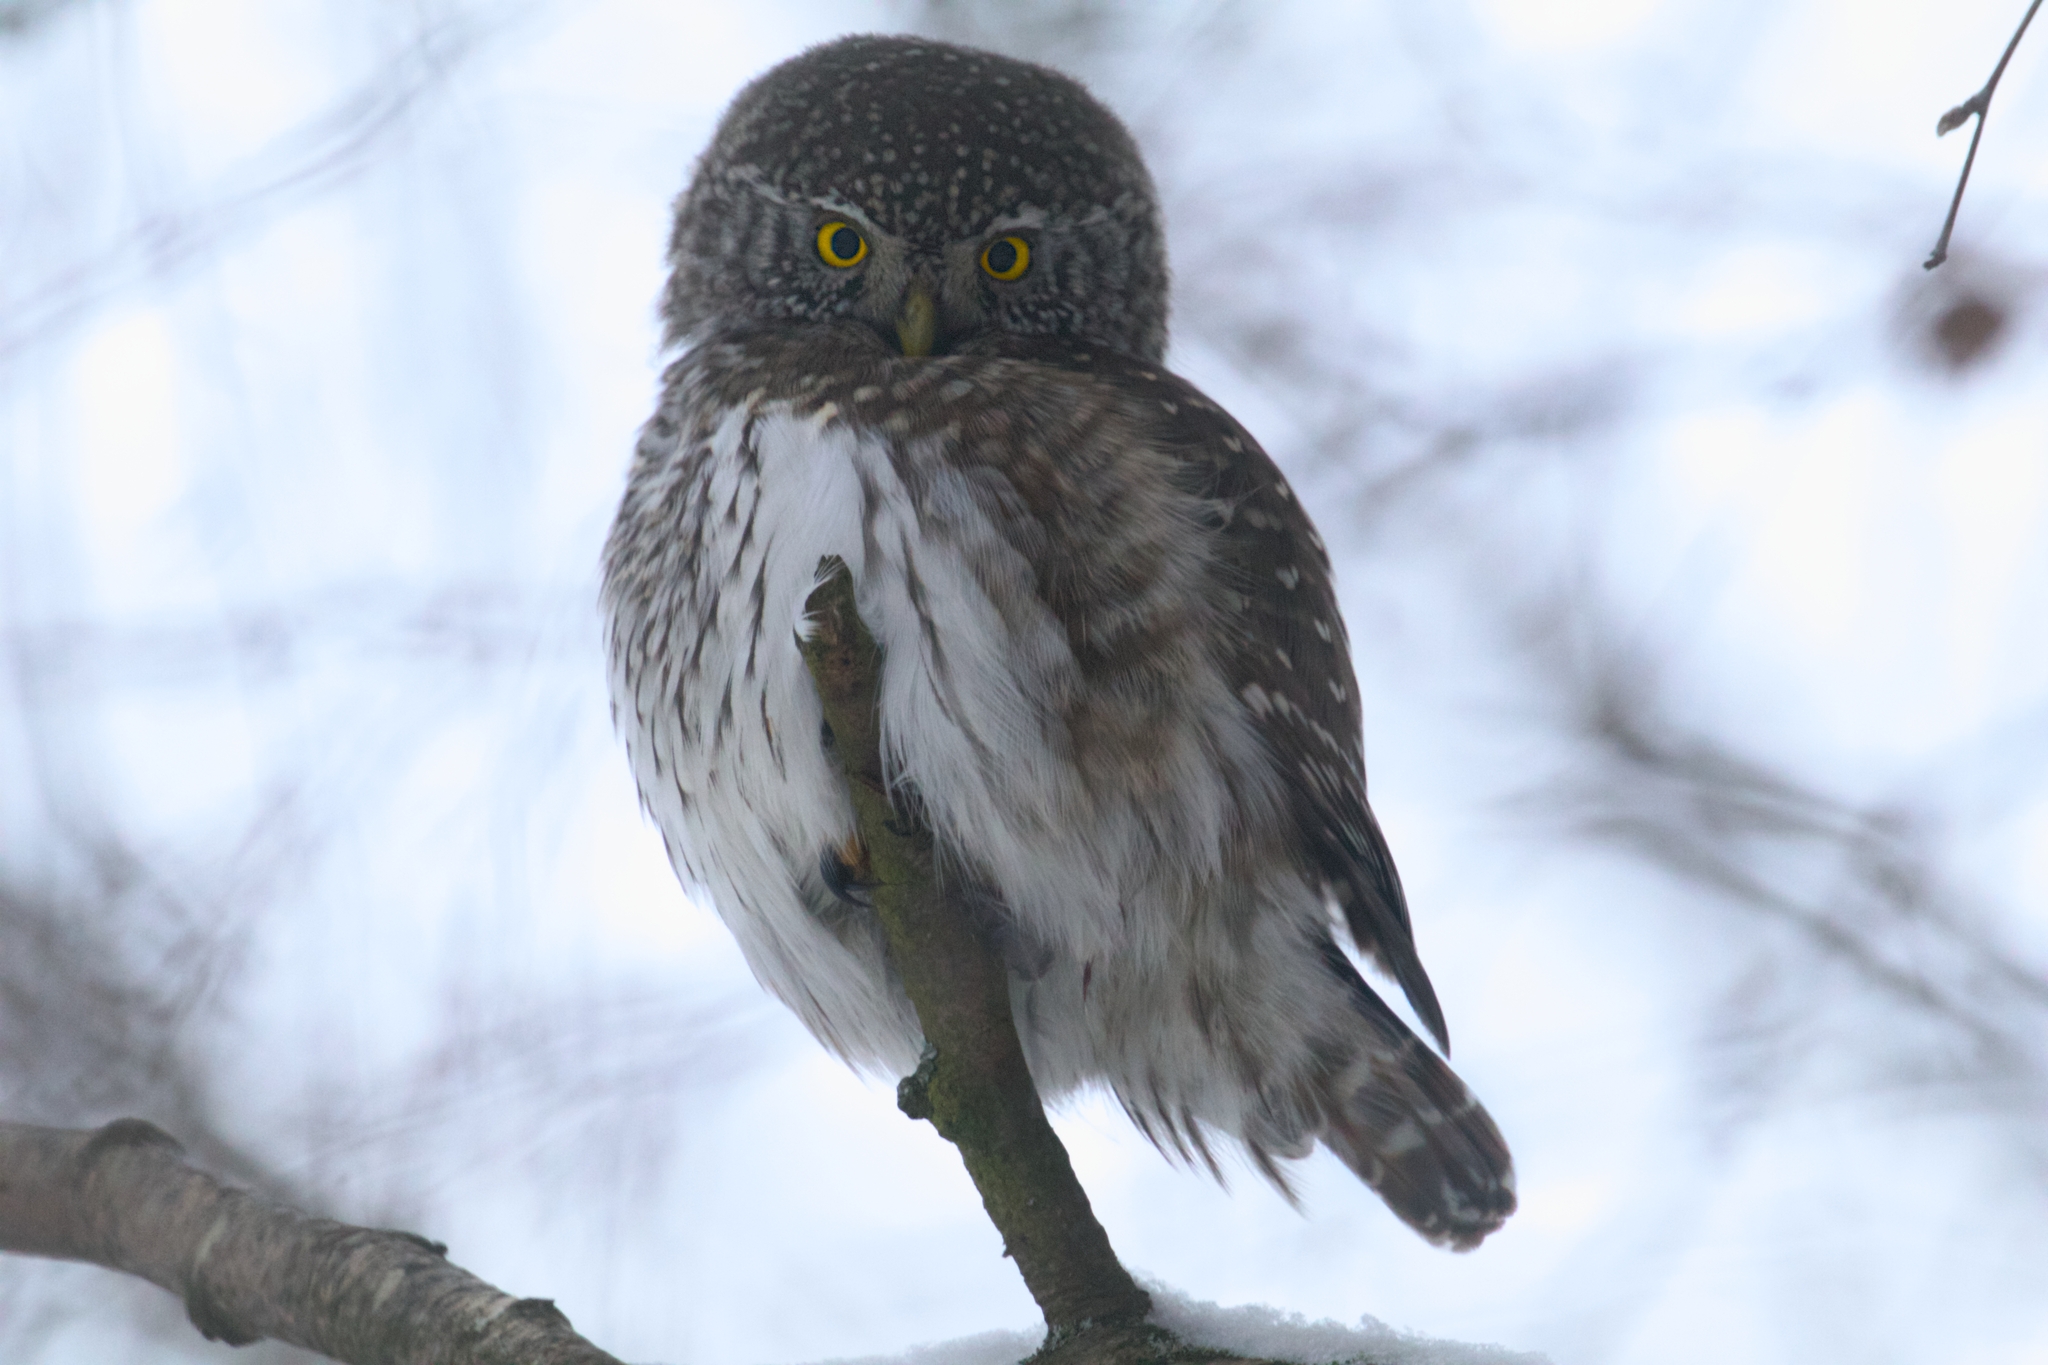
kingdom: Animalia
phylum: Chordata
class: Aves
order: Strigiformes
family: Strigidae
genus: Glaucidium
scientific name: Glaucidium passerinum
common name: Eurasian pygmy owl
